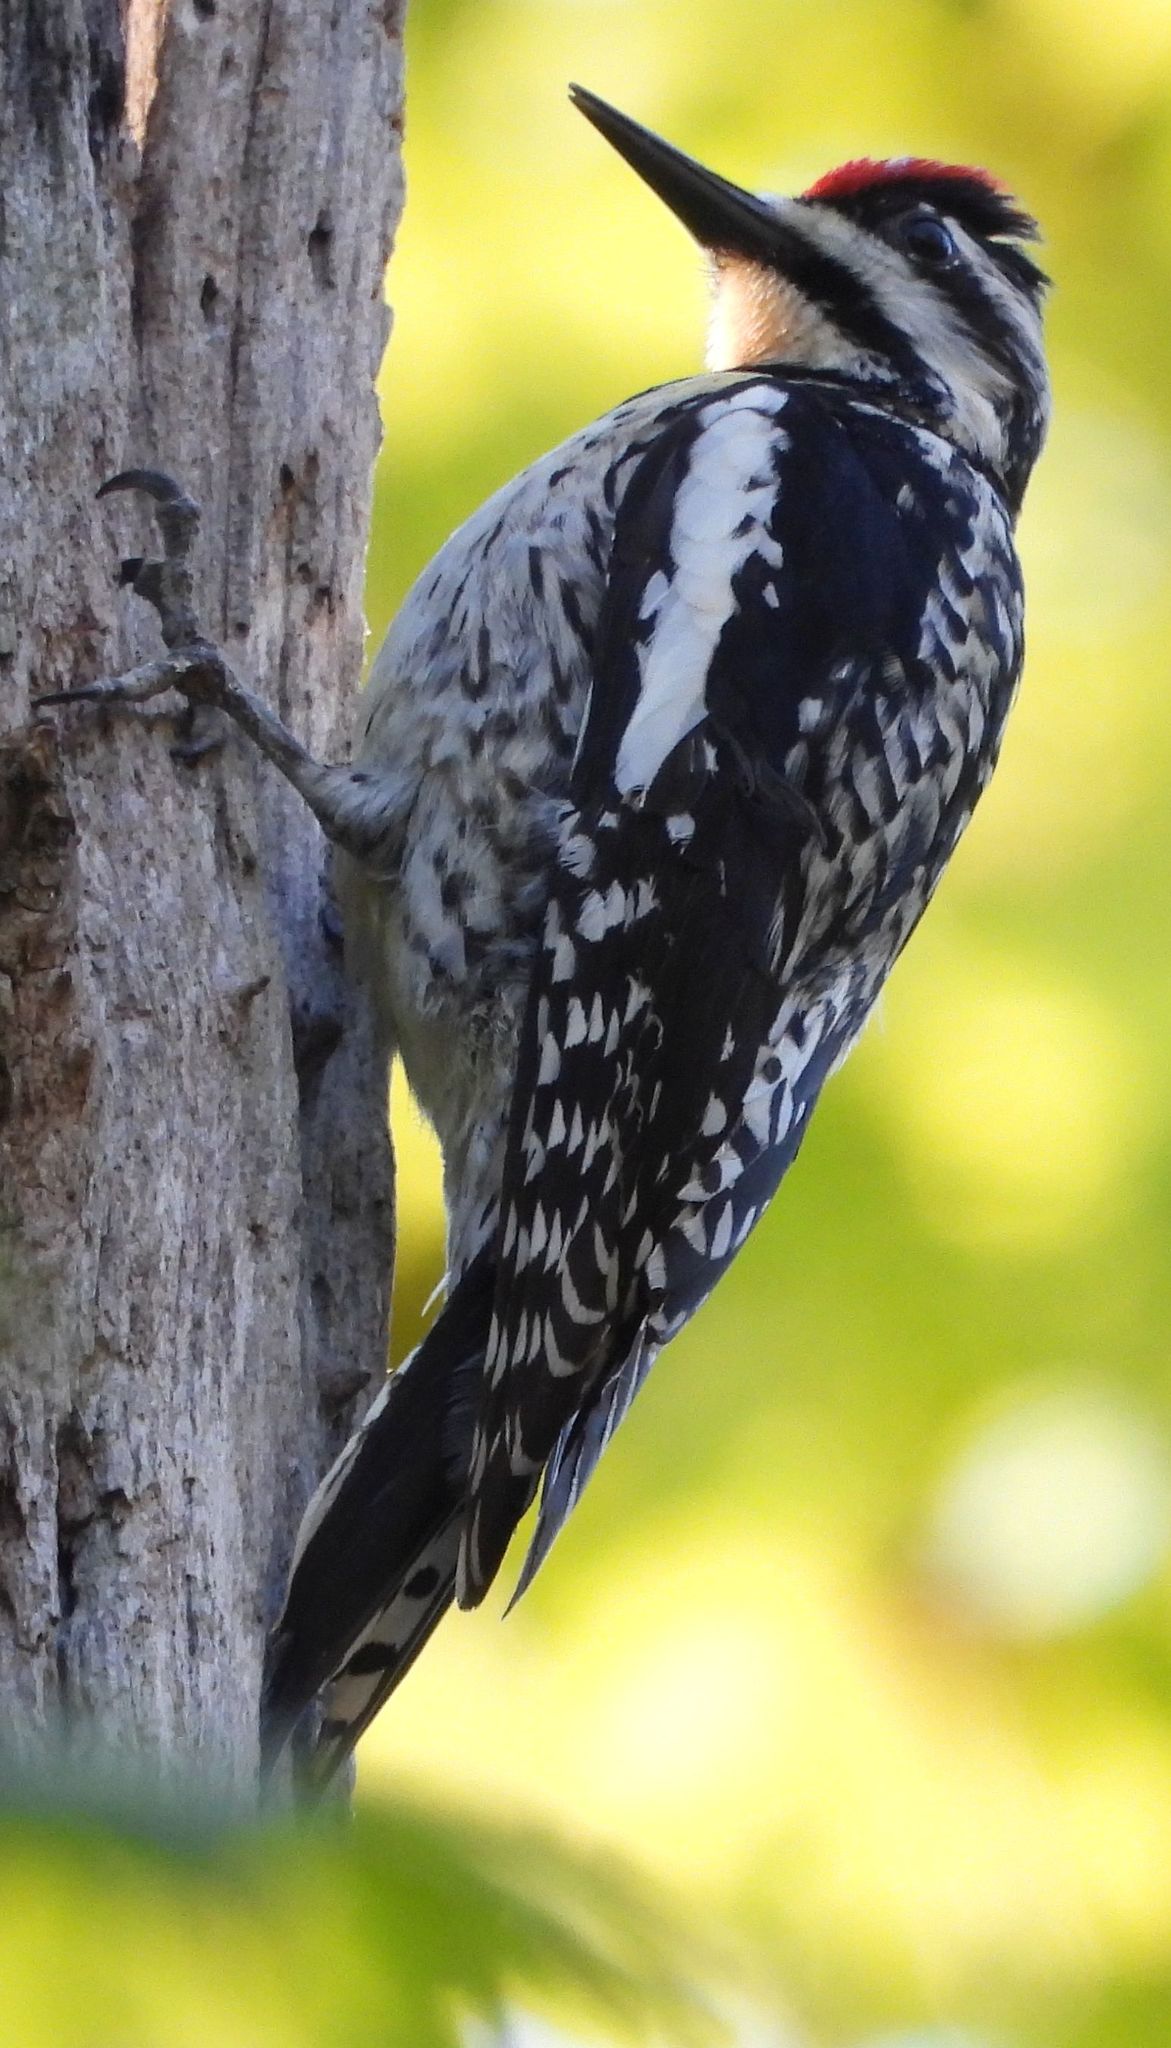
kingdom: Animalia
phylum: Chordata
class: Aves
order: Piciformes
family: Picidae
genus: Sphyrapicus
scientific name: Sphyrapicus varius
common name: Yellow-bellied sapsucker
